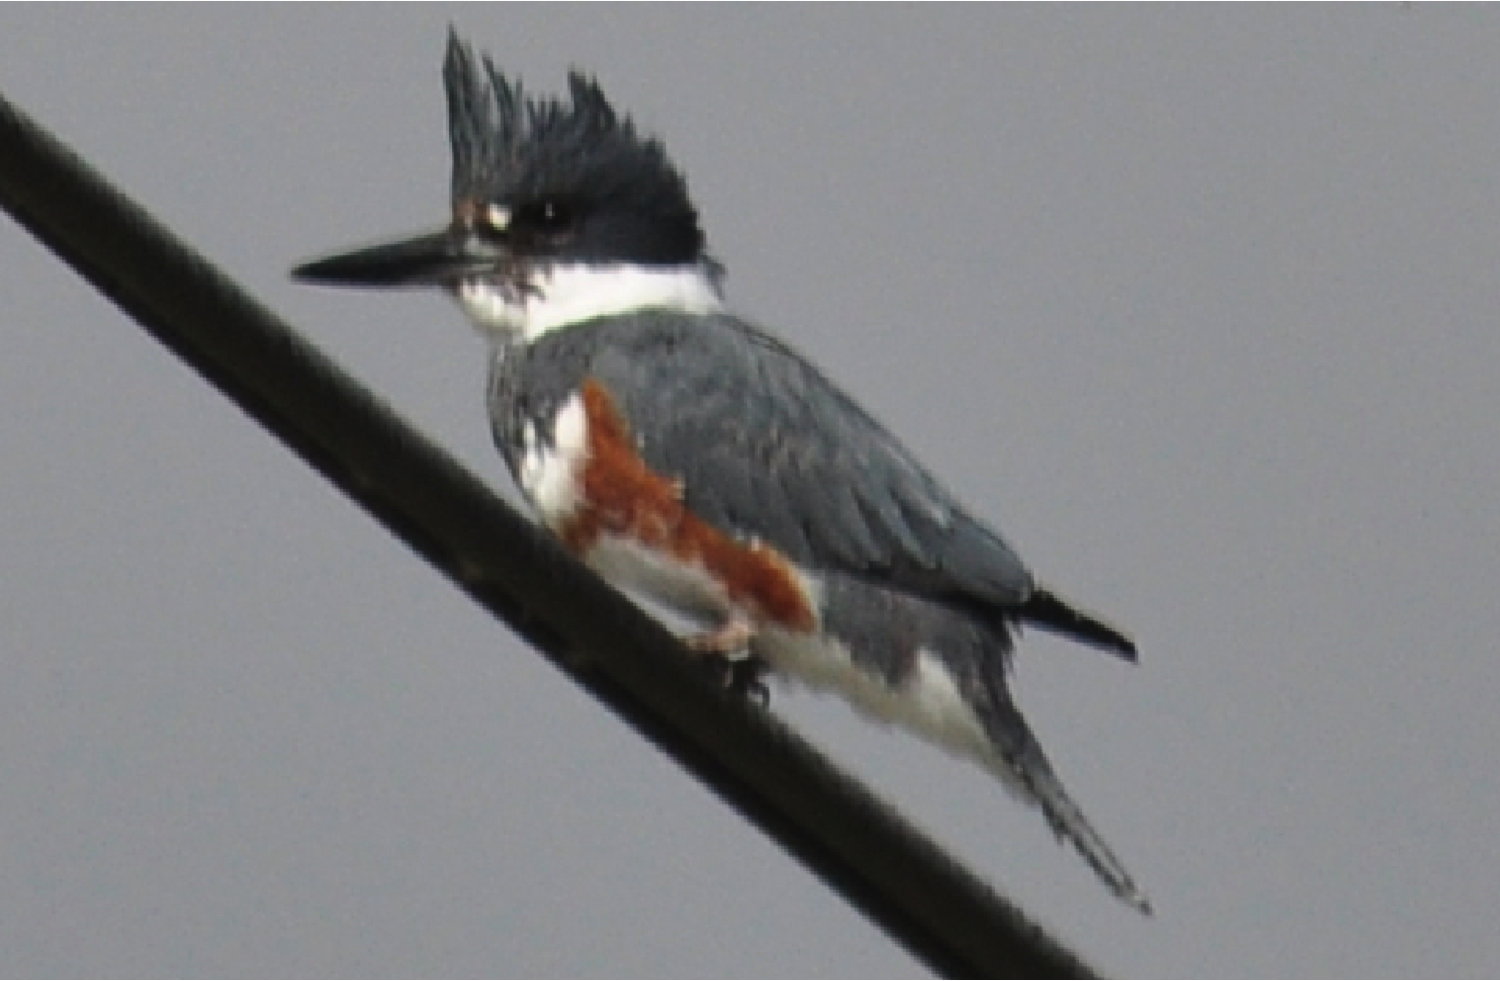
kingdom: Animalia
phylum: Chordata
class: Aves
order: Coraciiformes
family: Alcedinidae
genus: Megaceryle
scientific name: Megaceryle alcyon
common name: Belted kingfisher
